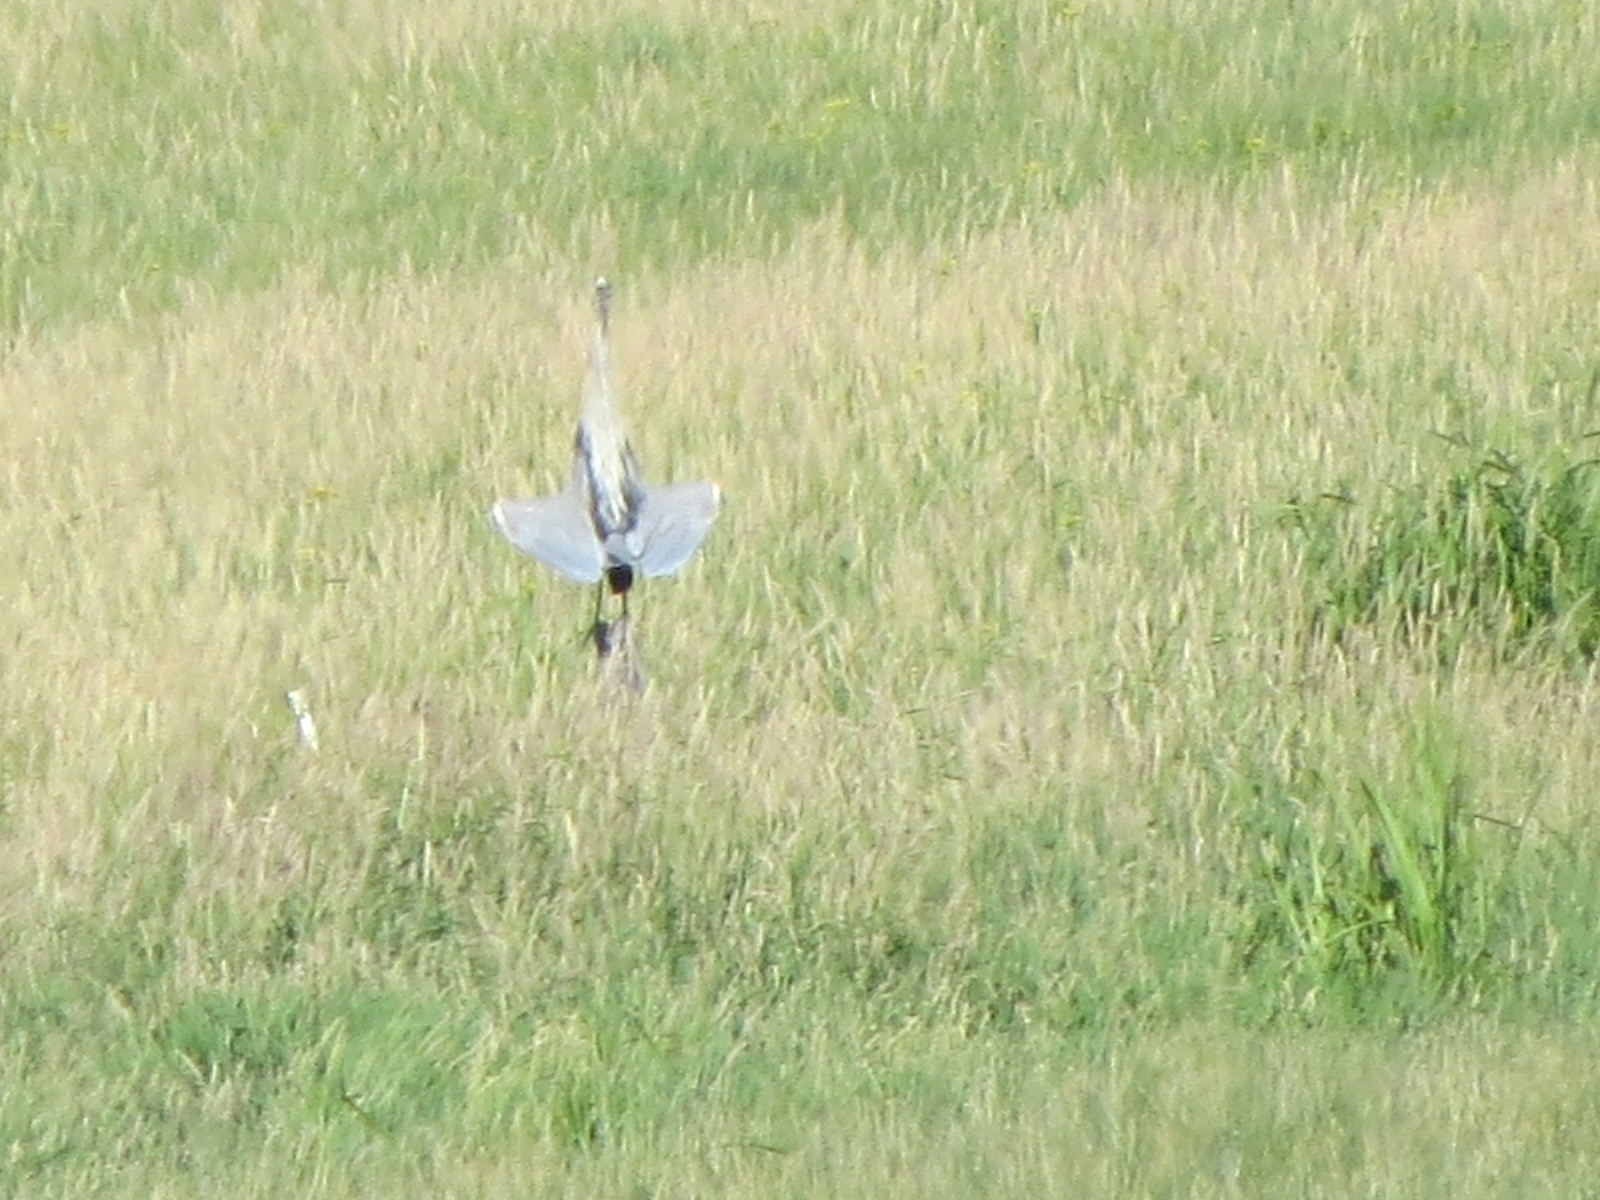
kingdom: Animalia
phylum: Chordata
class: Aves
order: Pelecaniformes
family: Ardeidae
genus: Ardea
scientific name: Ardea herodias
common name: Great blue heron
